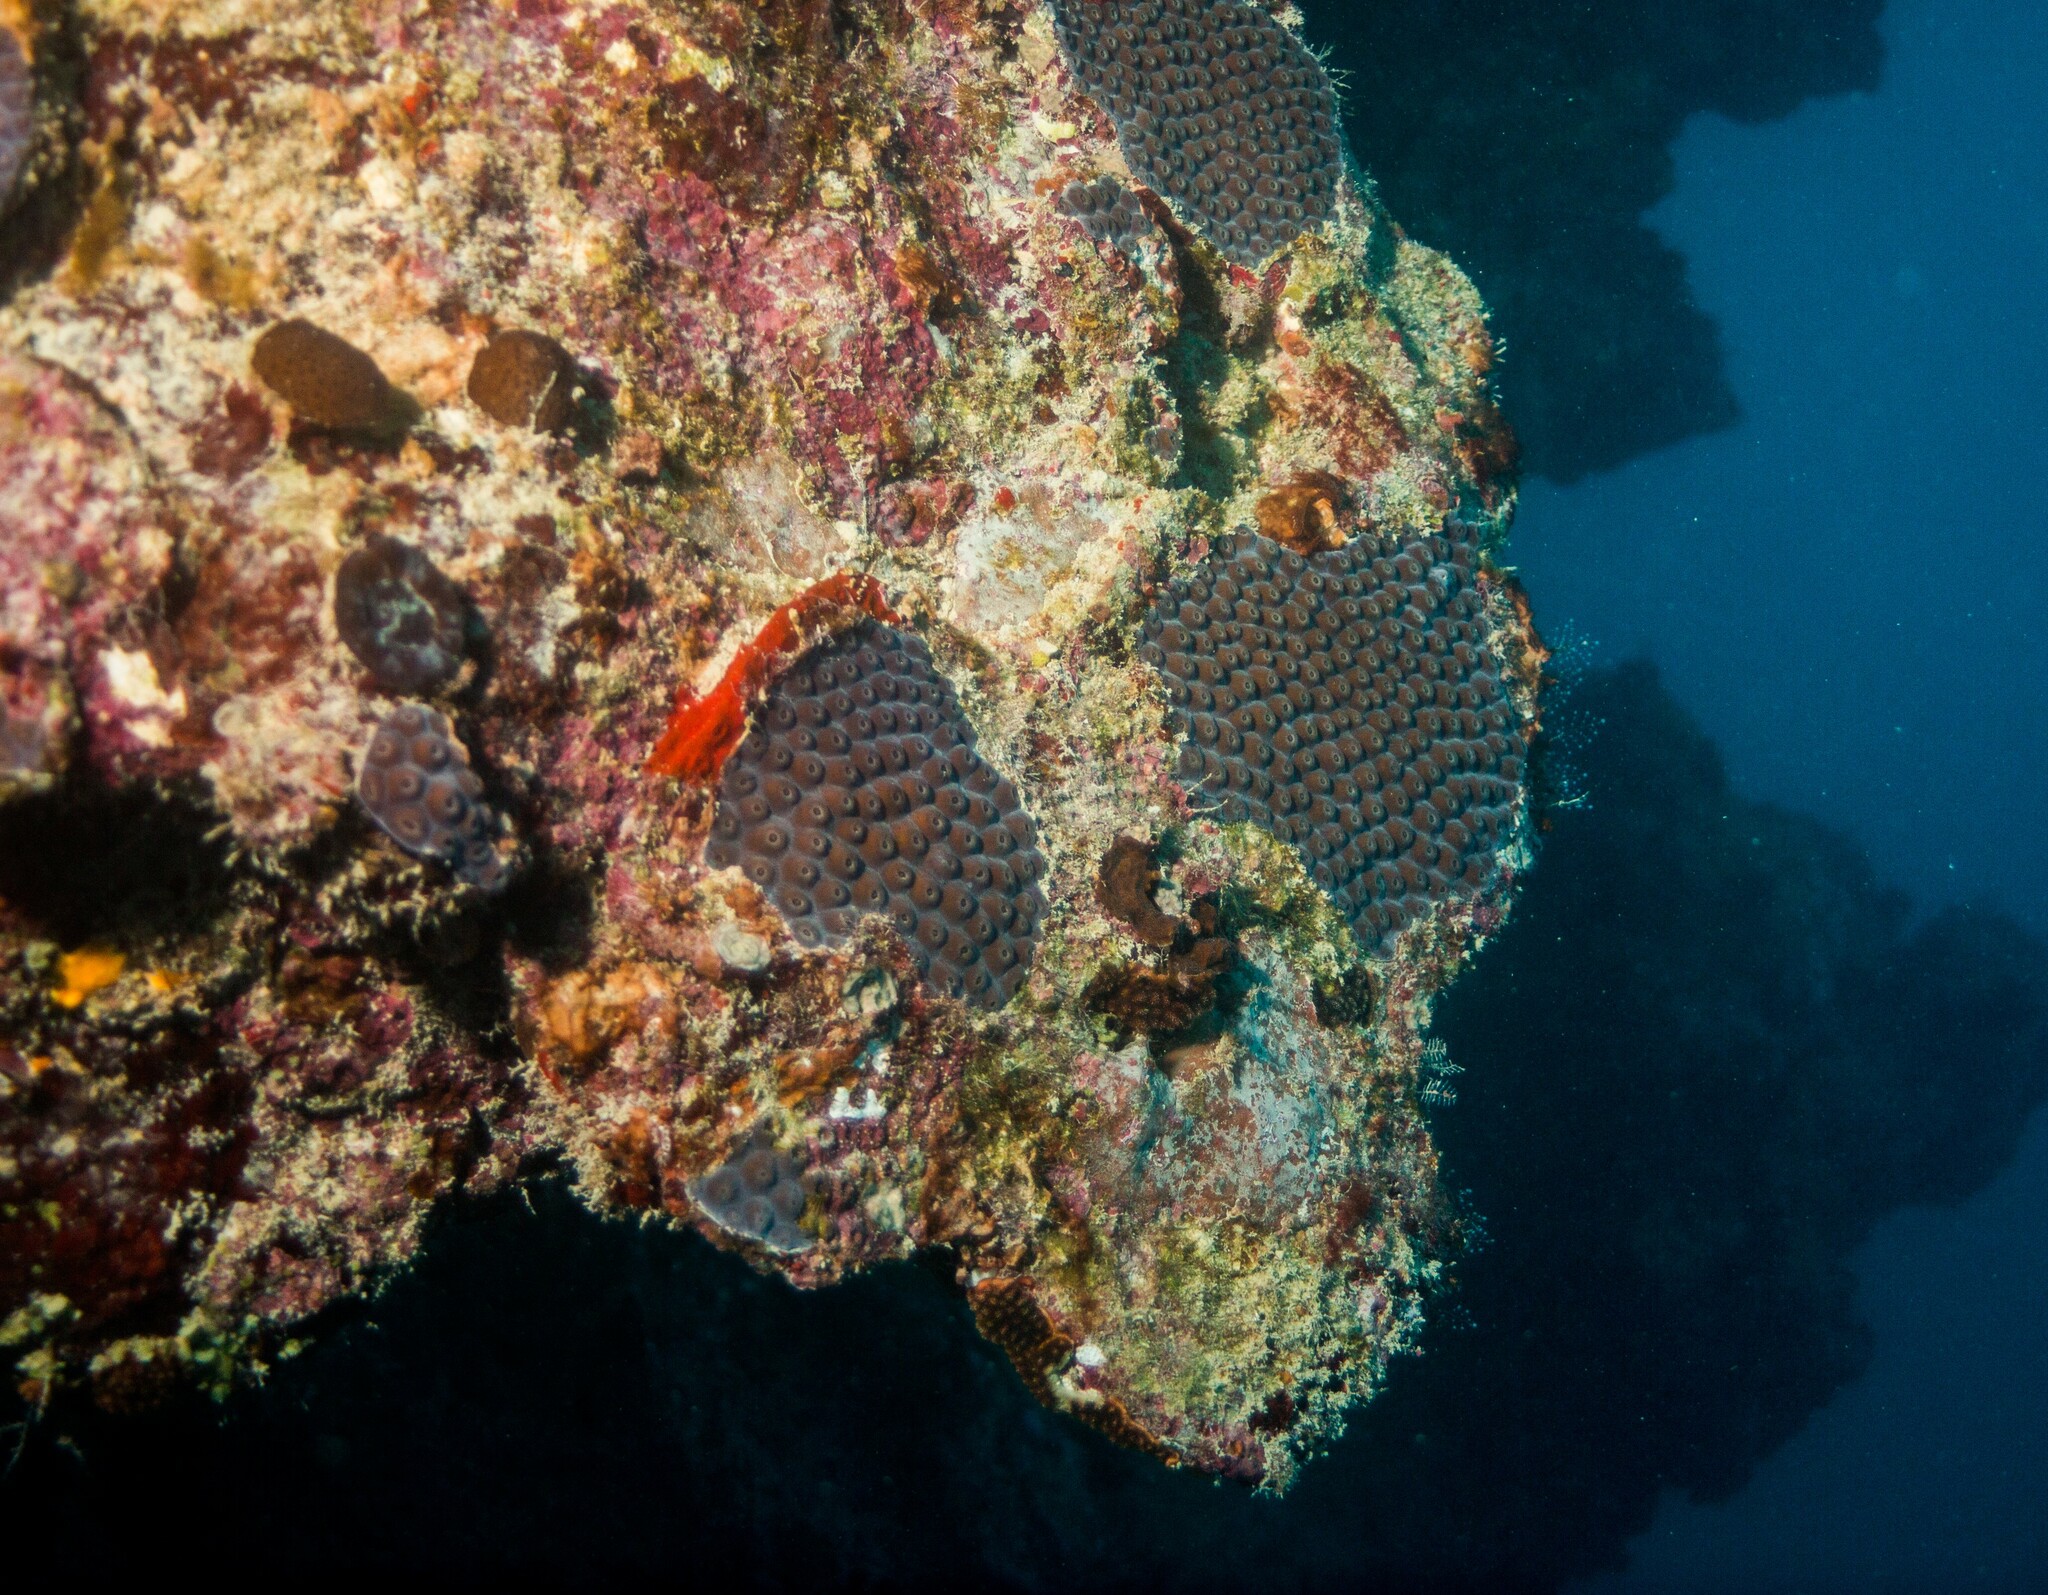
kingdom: Animalia
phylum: Cnidaria
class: Anthozoa
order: Scleractinia
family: Montastraeidae
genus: Montastraea
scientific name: Montastraea cavernosa
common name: Great star coral
